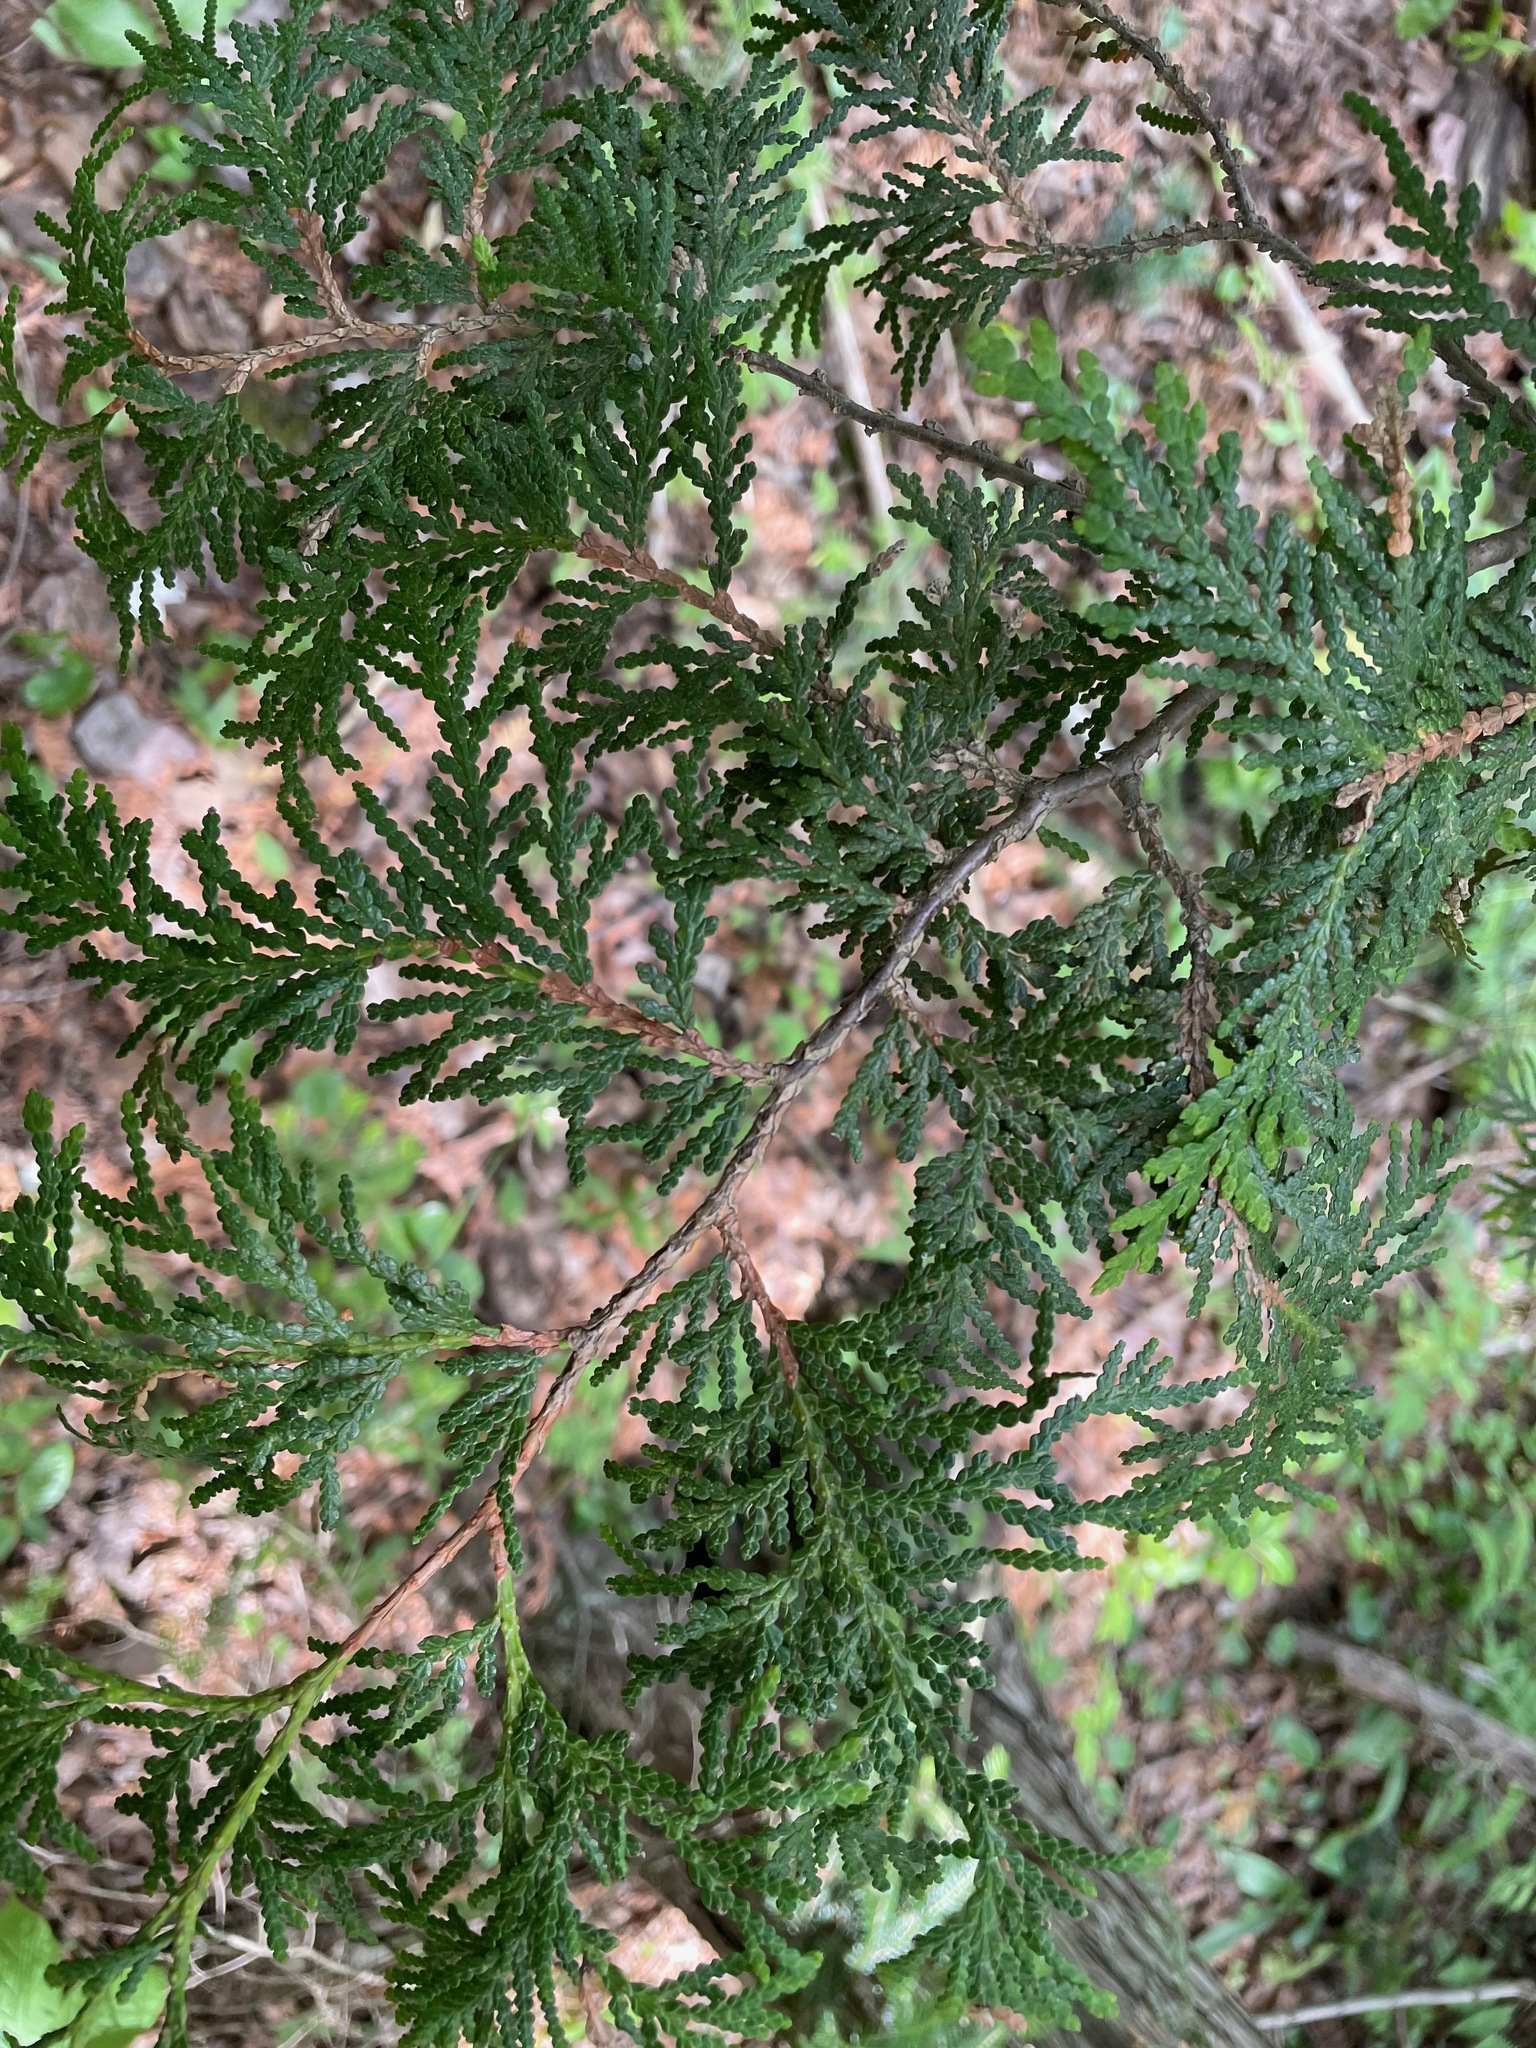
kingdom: Plantae
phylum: Tracheophyta
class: Pinopsida
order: Pinales
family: Cupressaceae
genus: Thuja
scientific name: Thuja occidentalis
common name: Northern white-cedar
